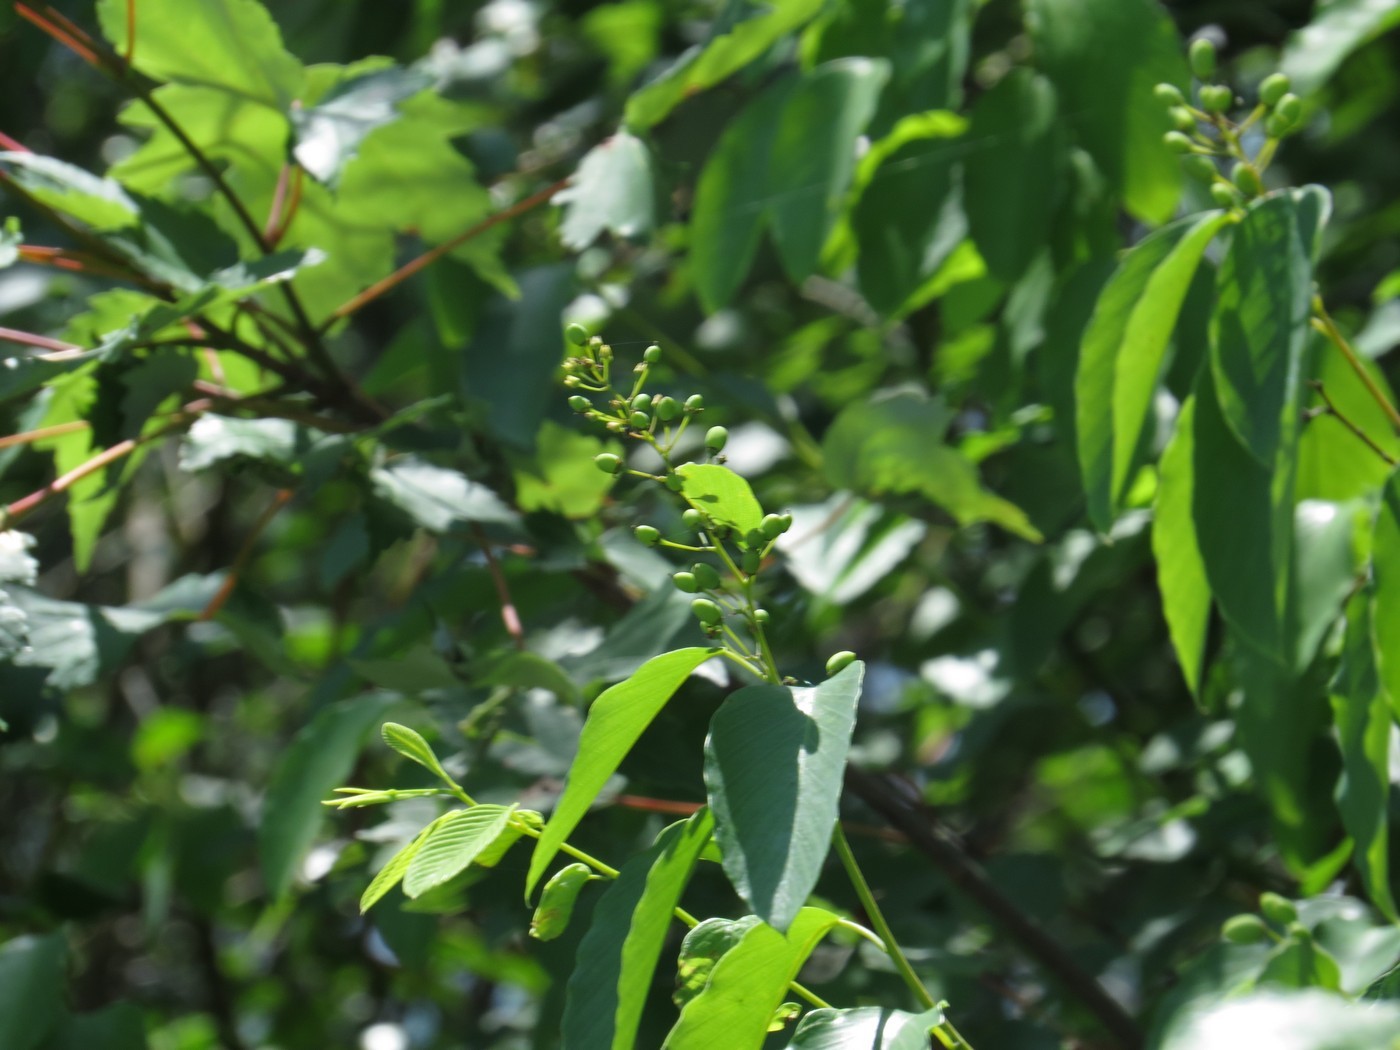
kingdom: Plantae
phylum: Tracheophyta
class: Magnoliopsida
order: Rosales
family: Rhamnaceae
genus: Berchemia
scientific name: Berchemia scandens
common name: Supplejack
